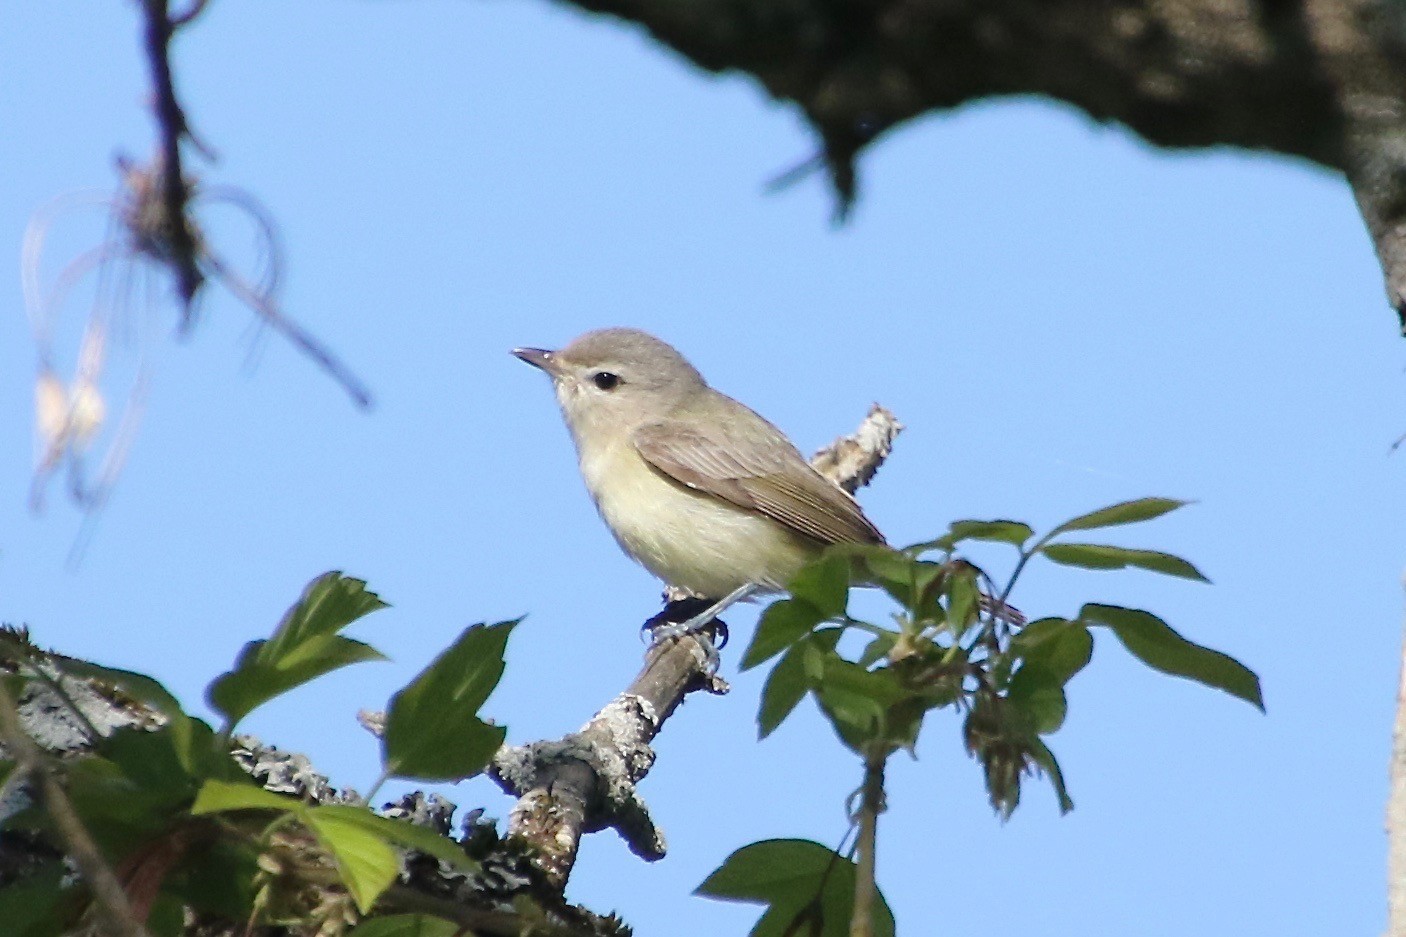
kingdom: Animalia
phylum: Chordata
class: Aves
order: Passeriformes
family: Vireonidae
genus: Vireo
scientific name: Vireo gilvus
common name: Warbling vireo
